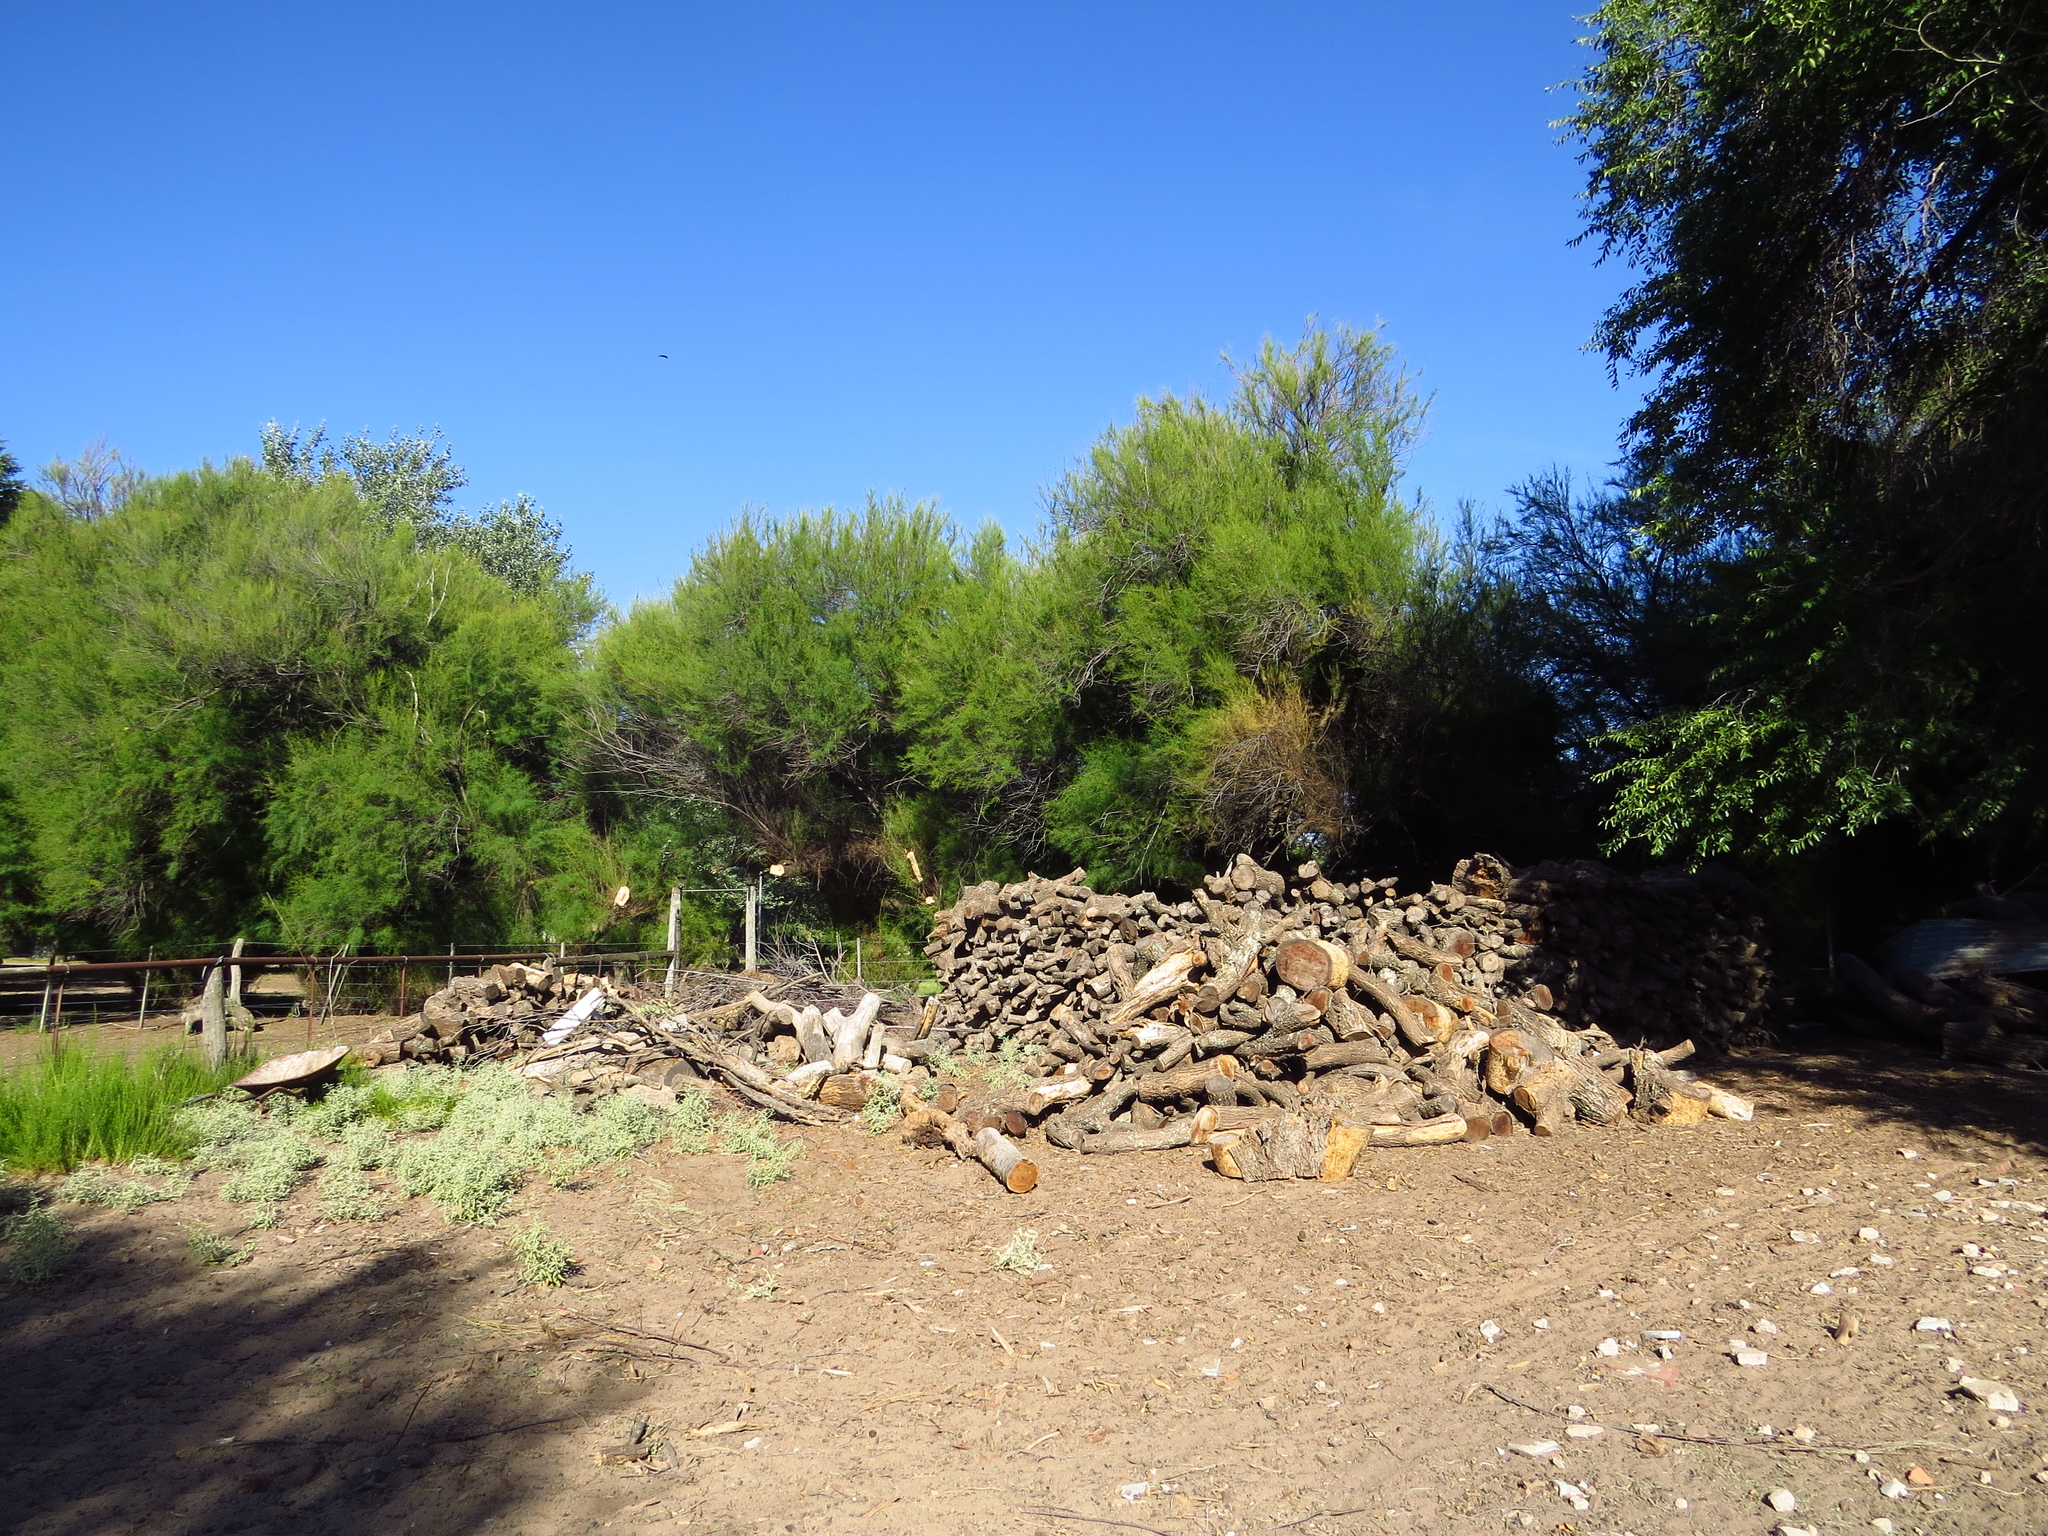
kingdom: Plantae
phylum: Tracheophyta
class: Magnoliopsida
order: Fabales
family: Fabaceae
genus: Prosopis
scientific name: Prosopis caldenia
